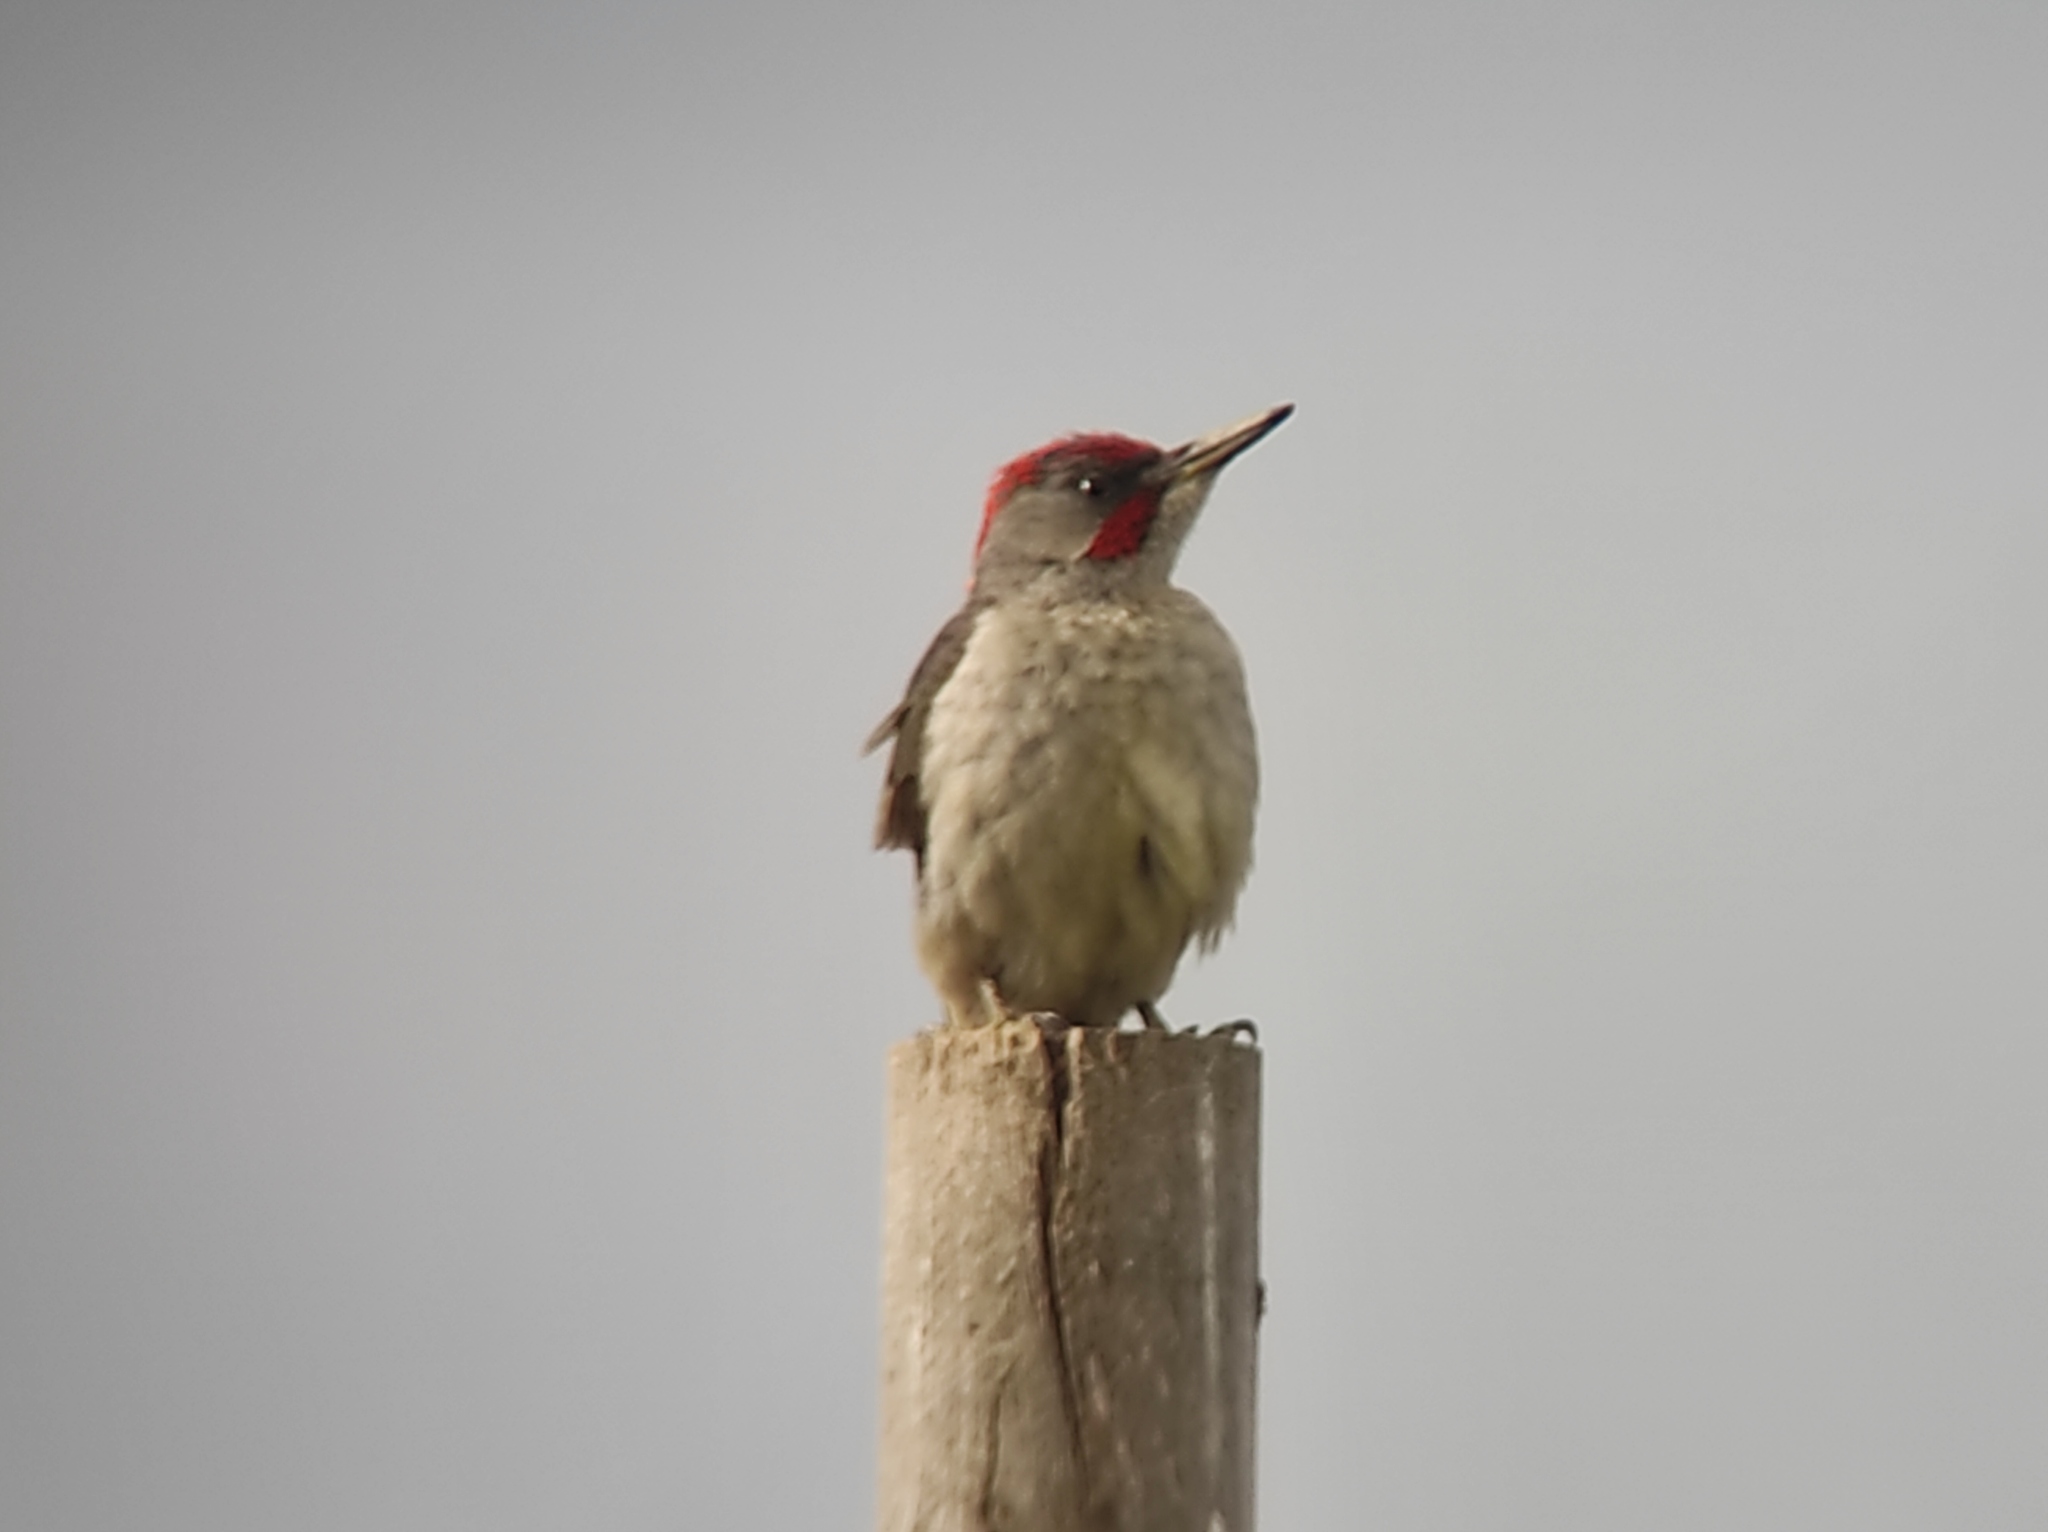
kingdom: Animalia
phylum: Chordata
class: Aves
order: Piciformes
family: Picidae
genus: Picus
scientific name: Picus sharpei
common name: Iberian green woodpecker
